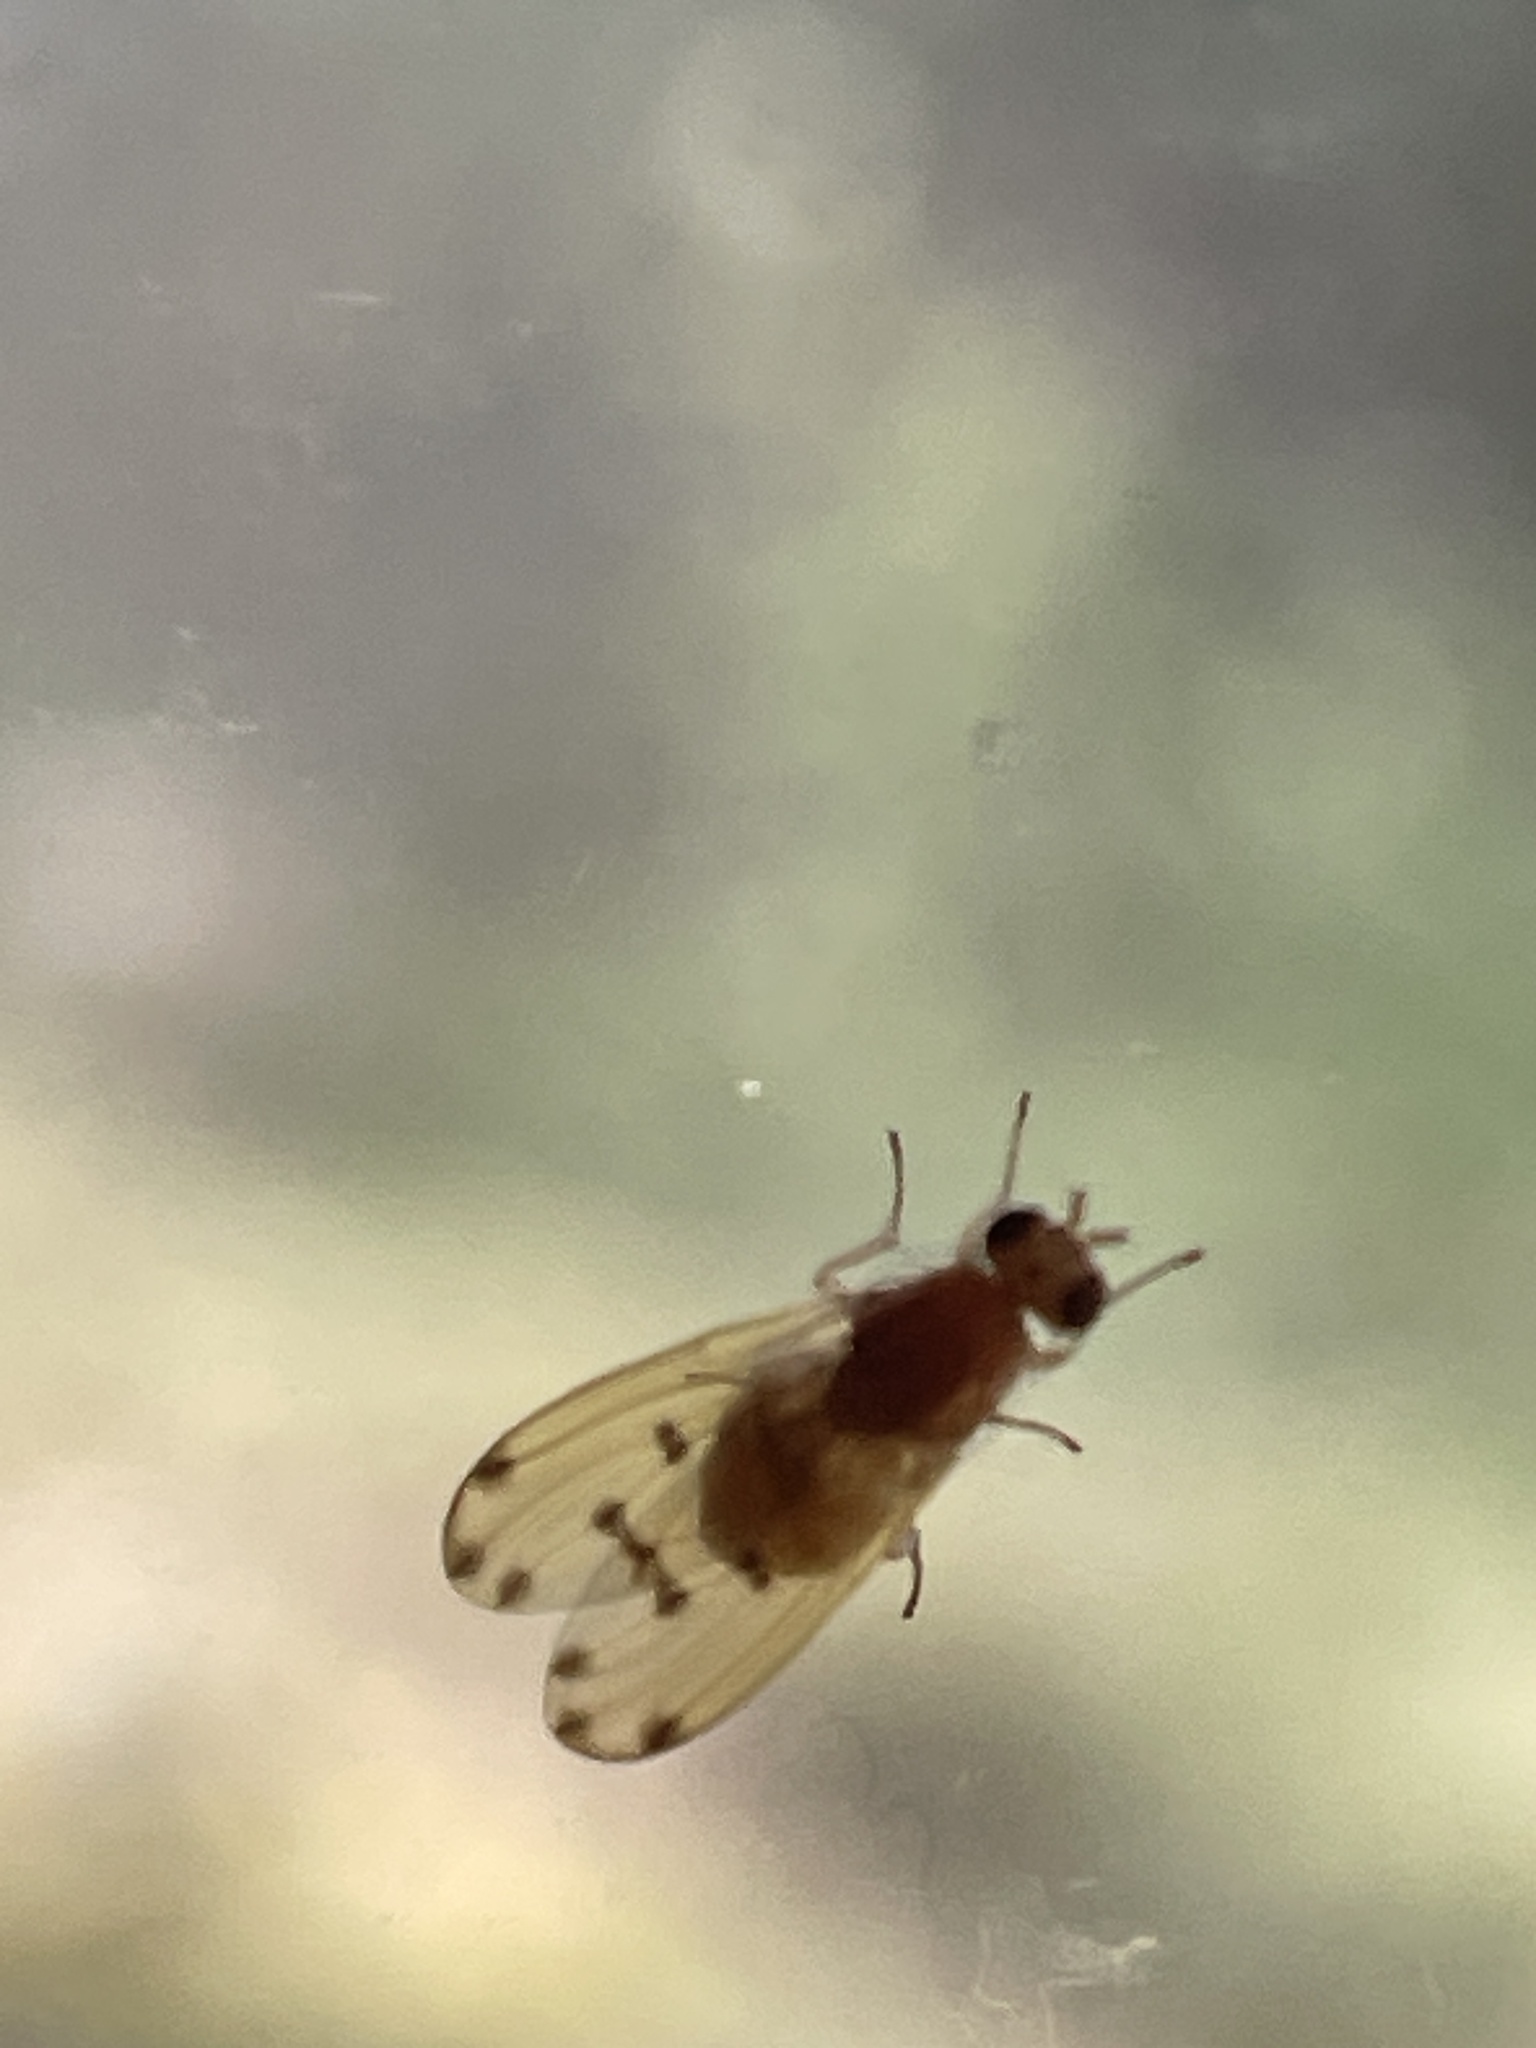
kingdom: Animalia
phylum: Arthropoda
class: Insecta
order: Diptera
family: Lauxaniidae
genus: Meiosimyza
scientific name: Meiosimyza decempunctata
